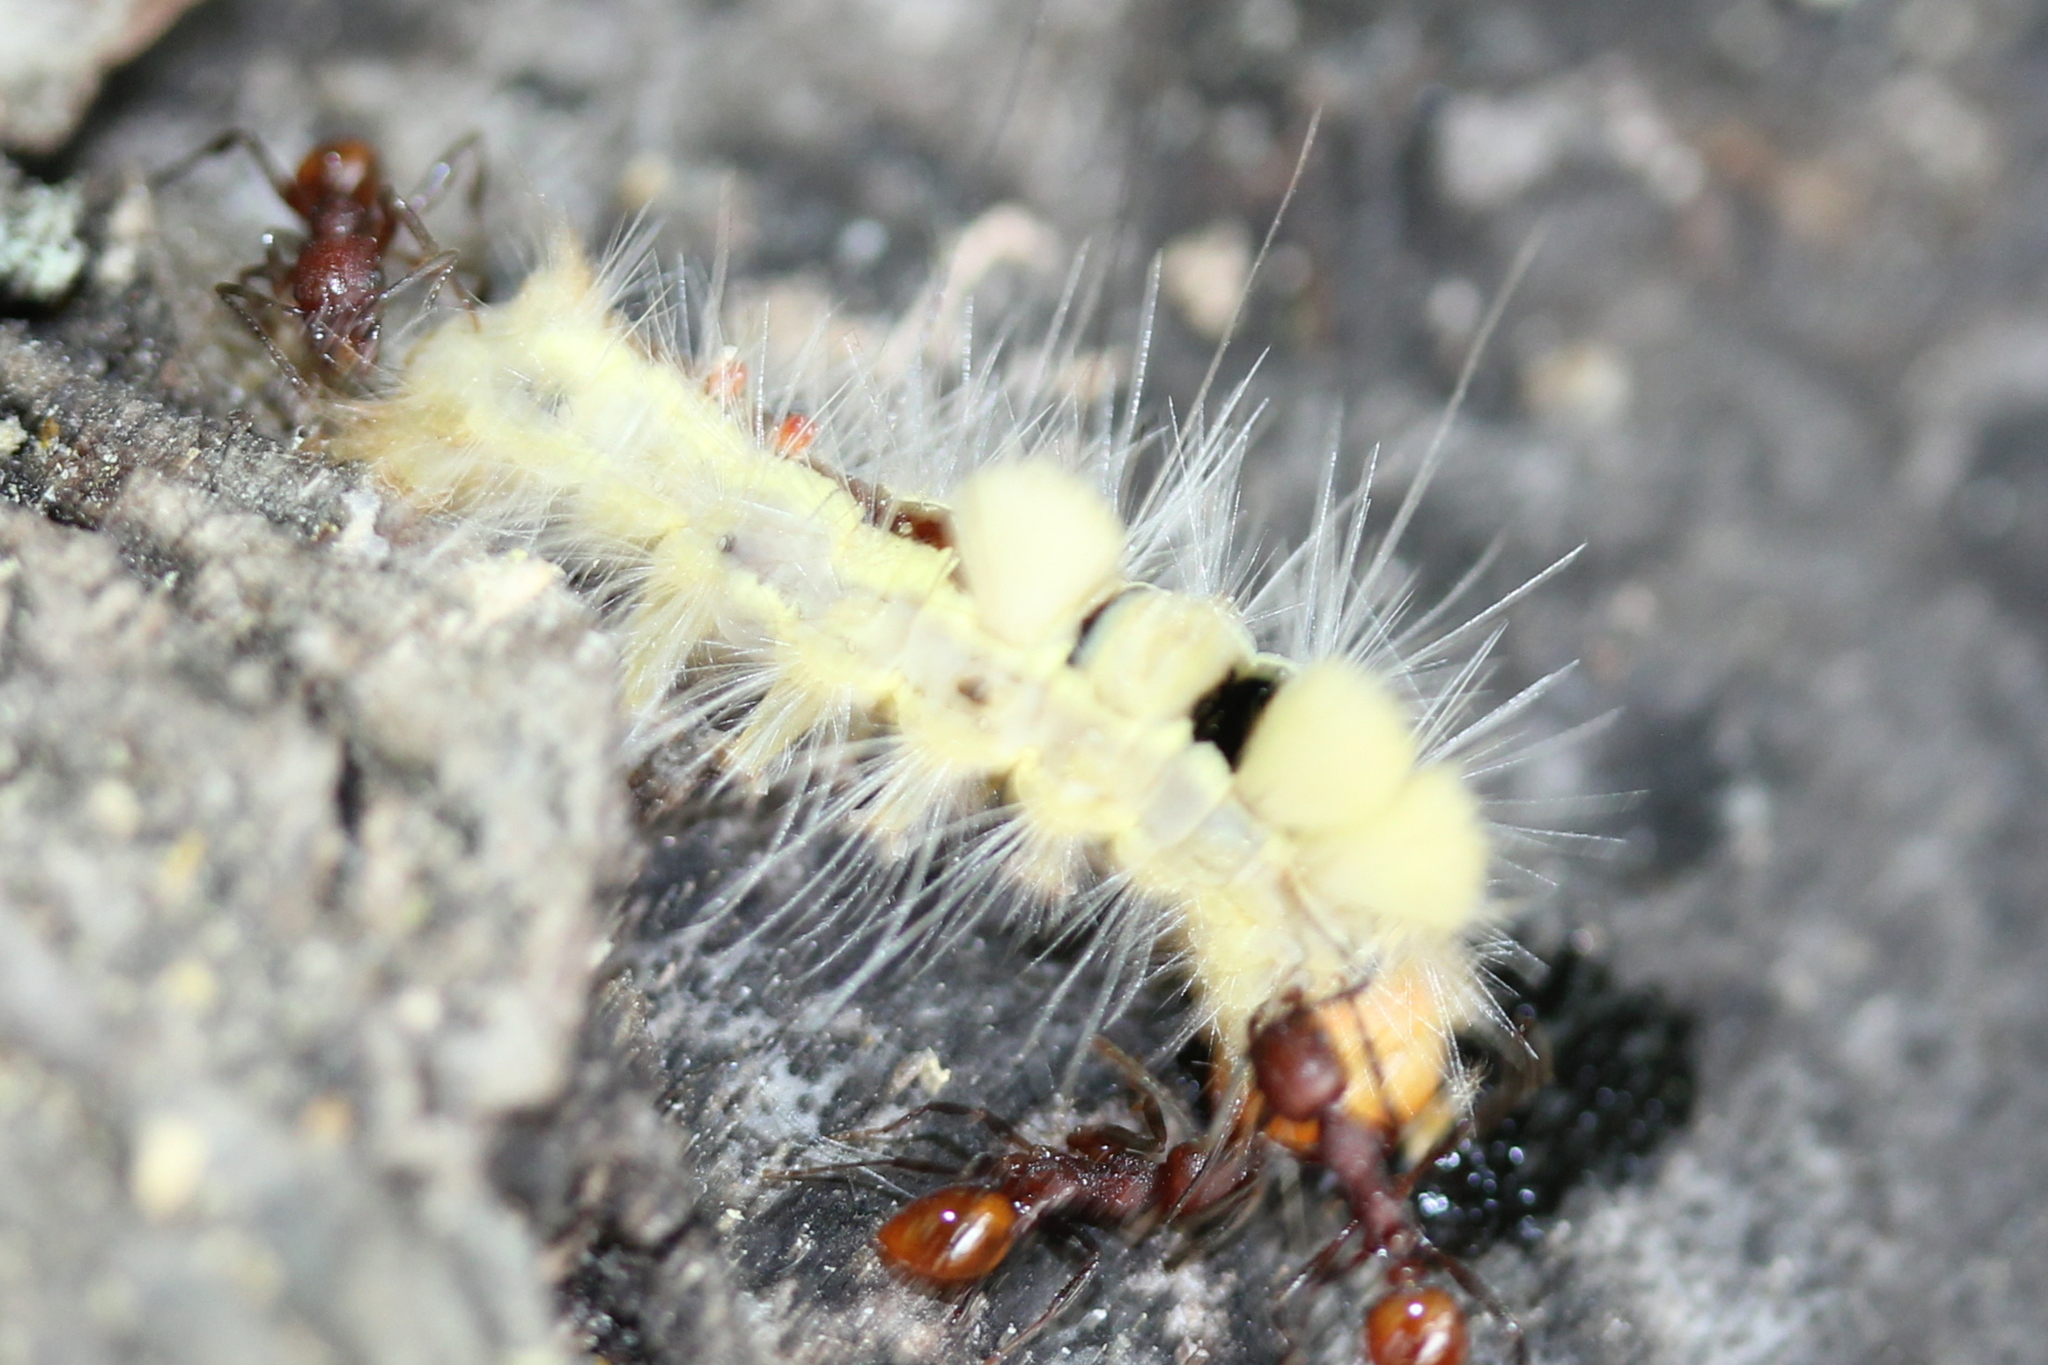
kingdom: Animalia
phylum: Arthropoda
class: Insecta
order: Lepidoptera
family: Erebidae
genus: Orgyia
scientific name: Orgyia leucostigma
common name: White-marked tussock moth
